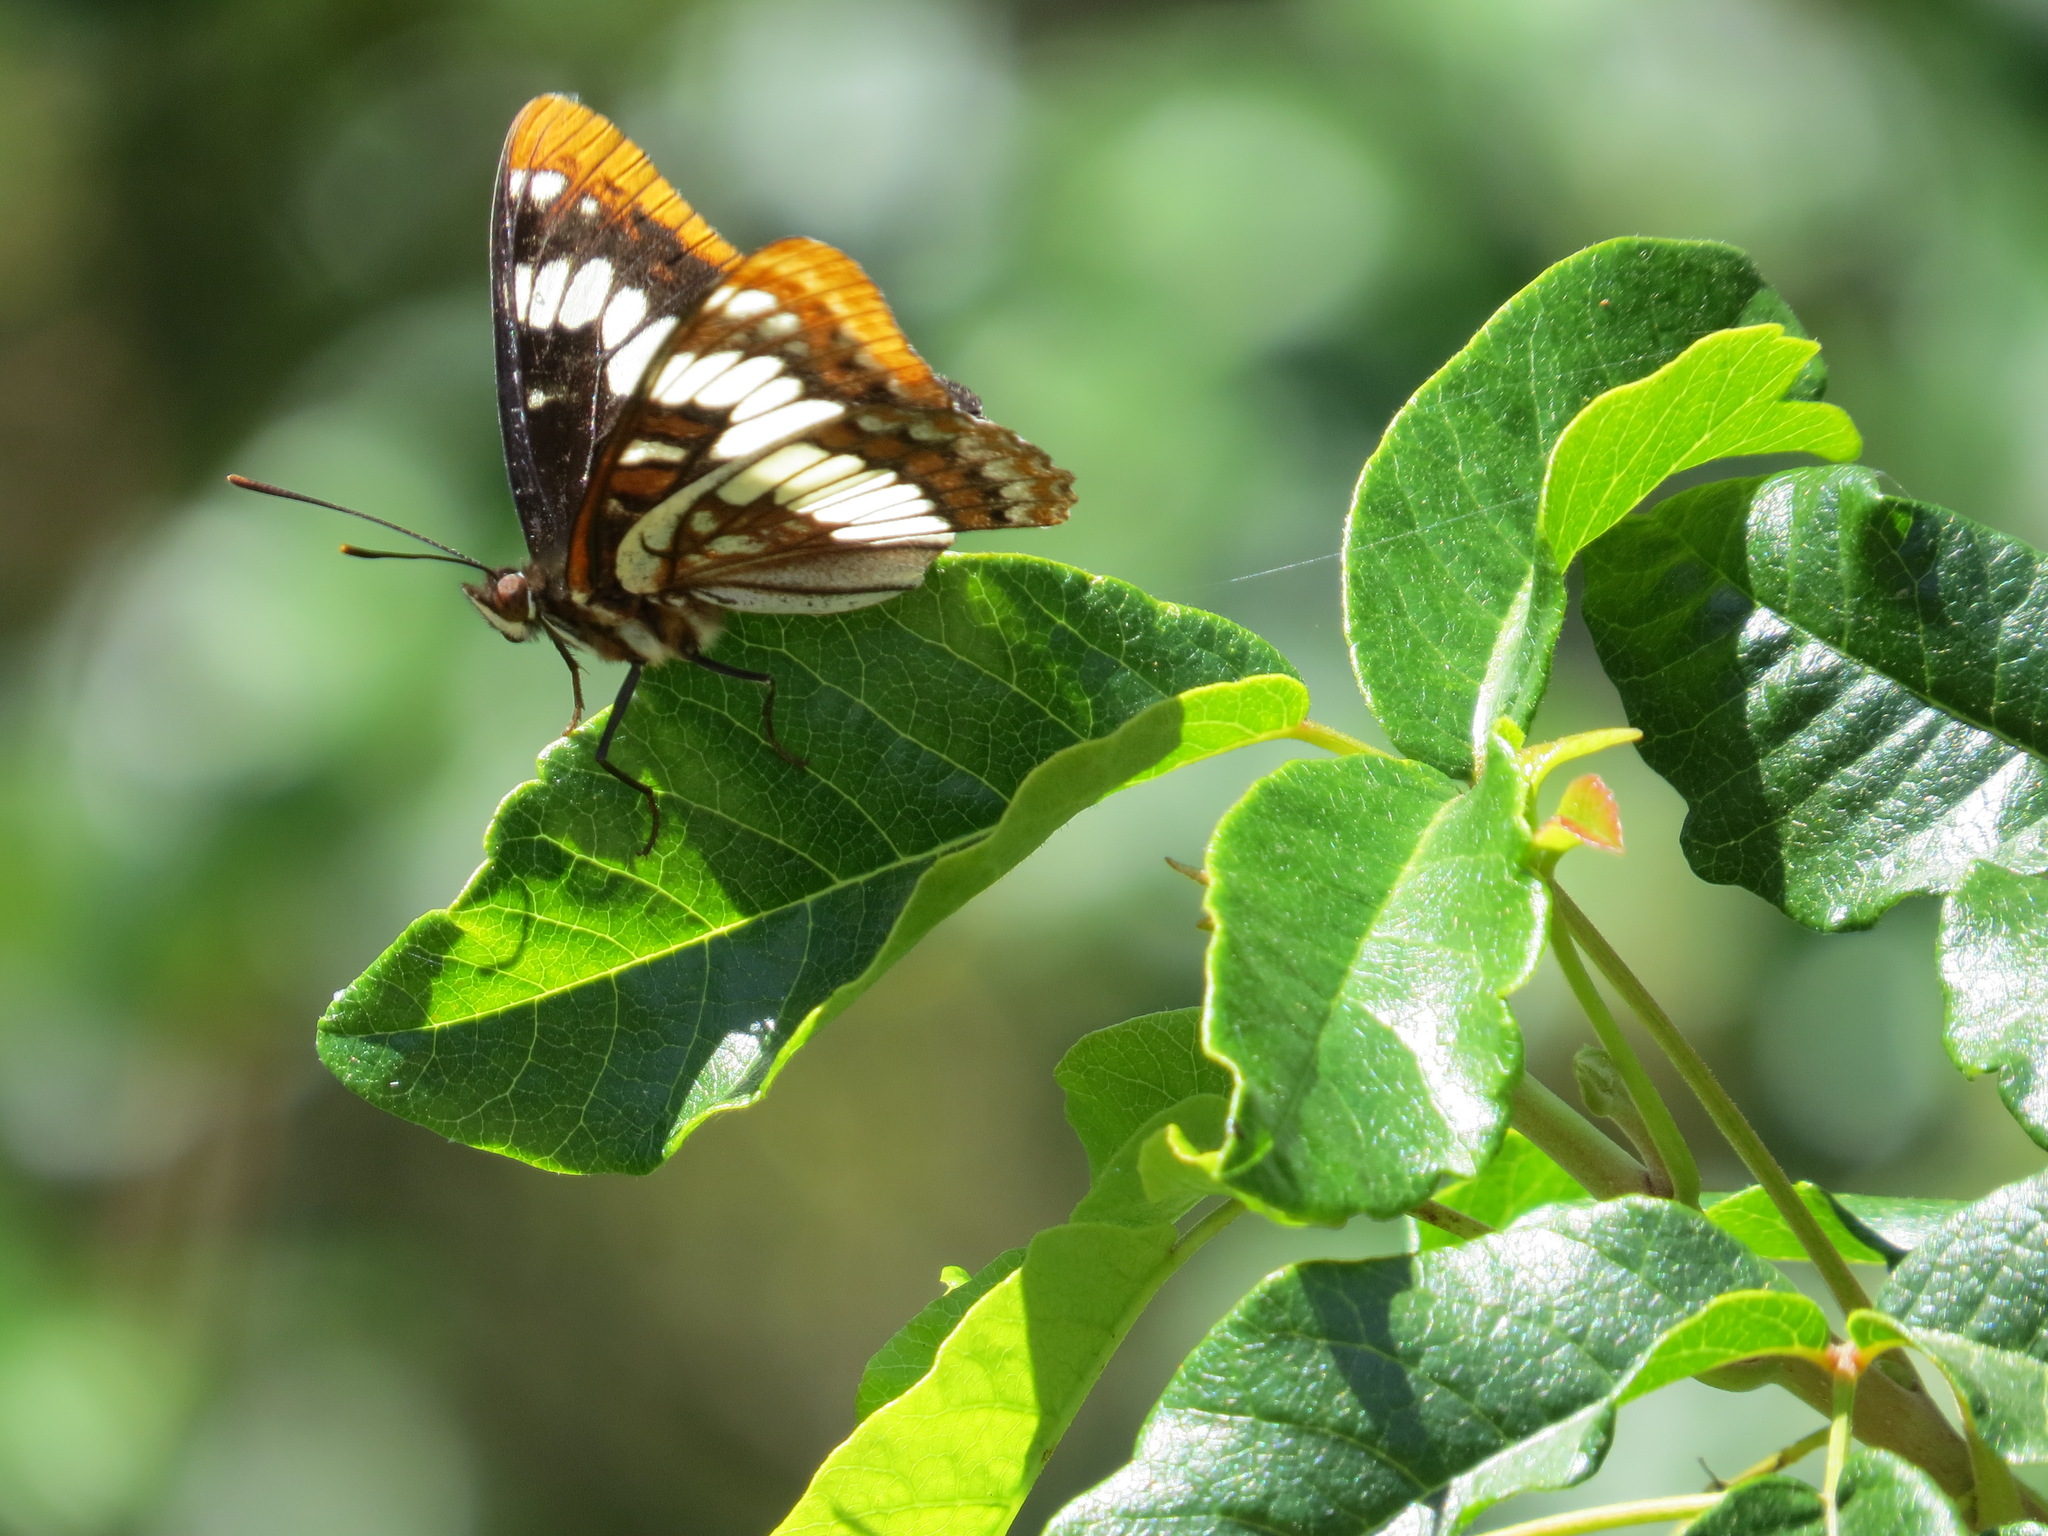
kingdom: Animalia
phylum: Arthropoda
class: Insecta
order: Lepidoptera
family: Nymphalidae
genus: Limenitis
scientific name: Limenitis lorquini
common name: Lorquin's admiral
